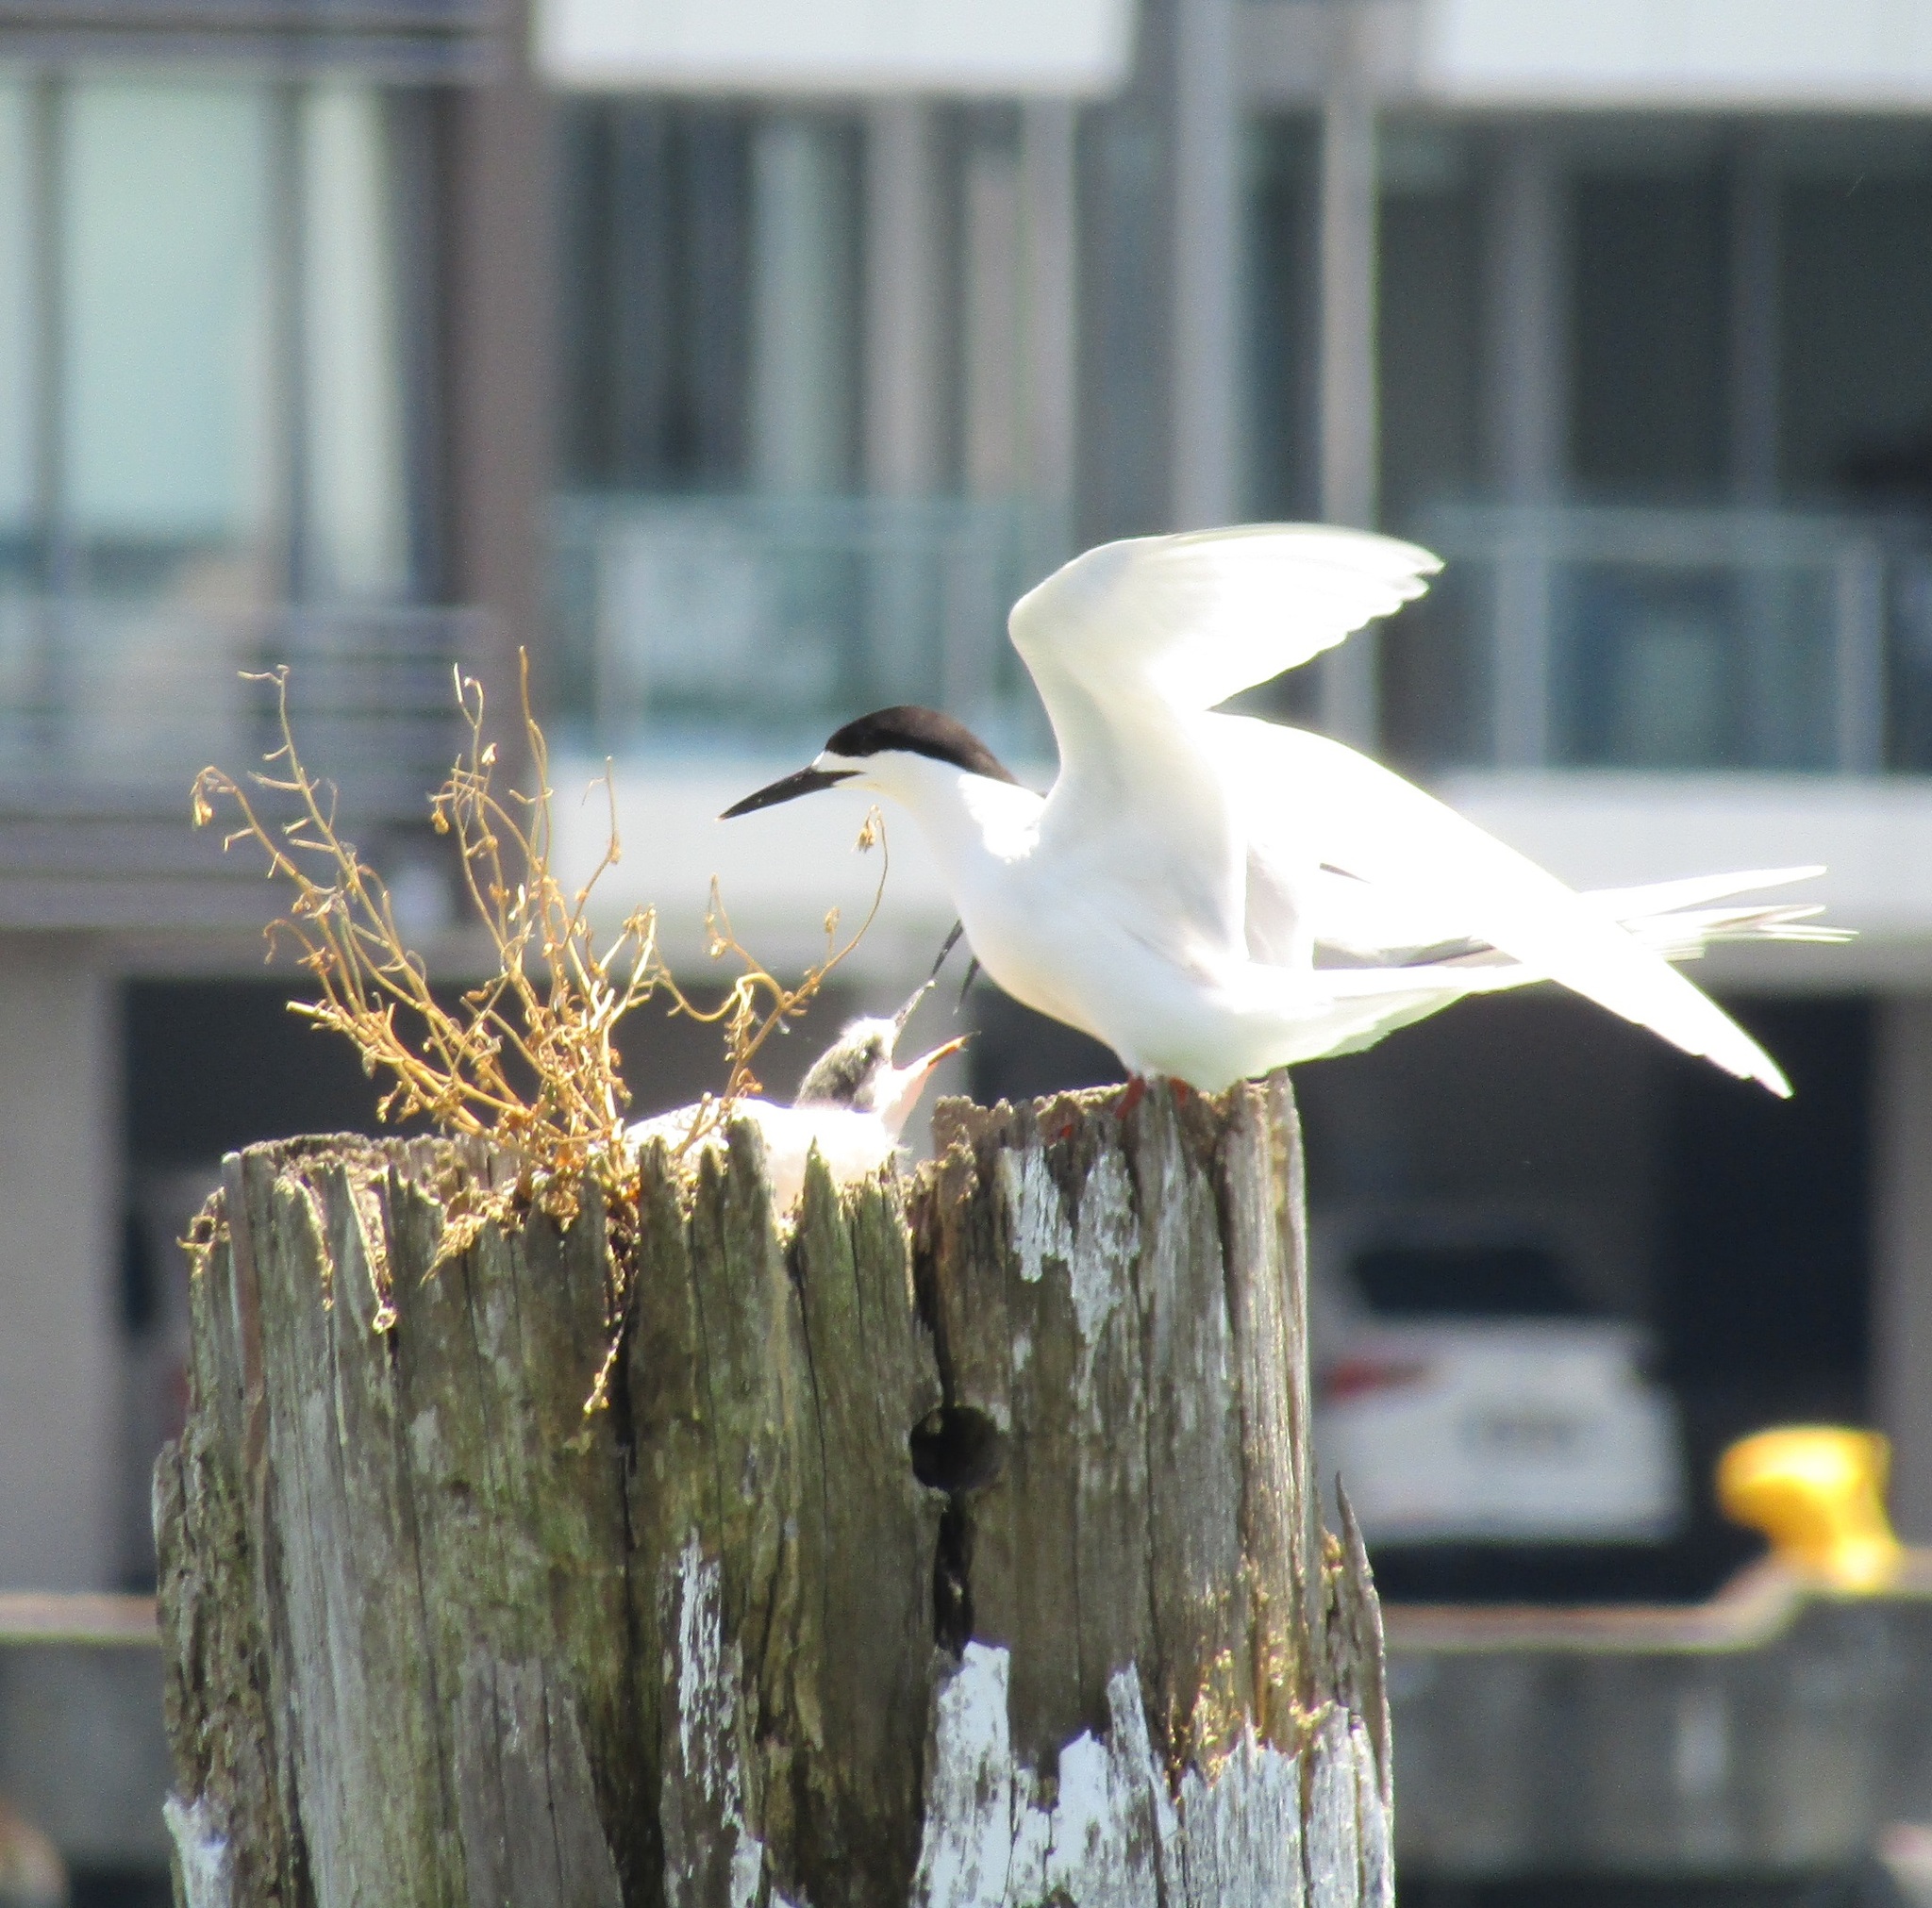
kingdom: Animalia
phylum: Chordata
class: Aves
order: Charadriiformes
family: Laridae
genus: Sterna
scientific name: Sterna striata
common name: White-fronted tern
